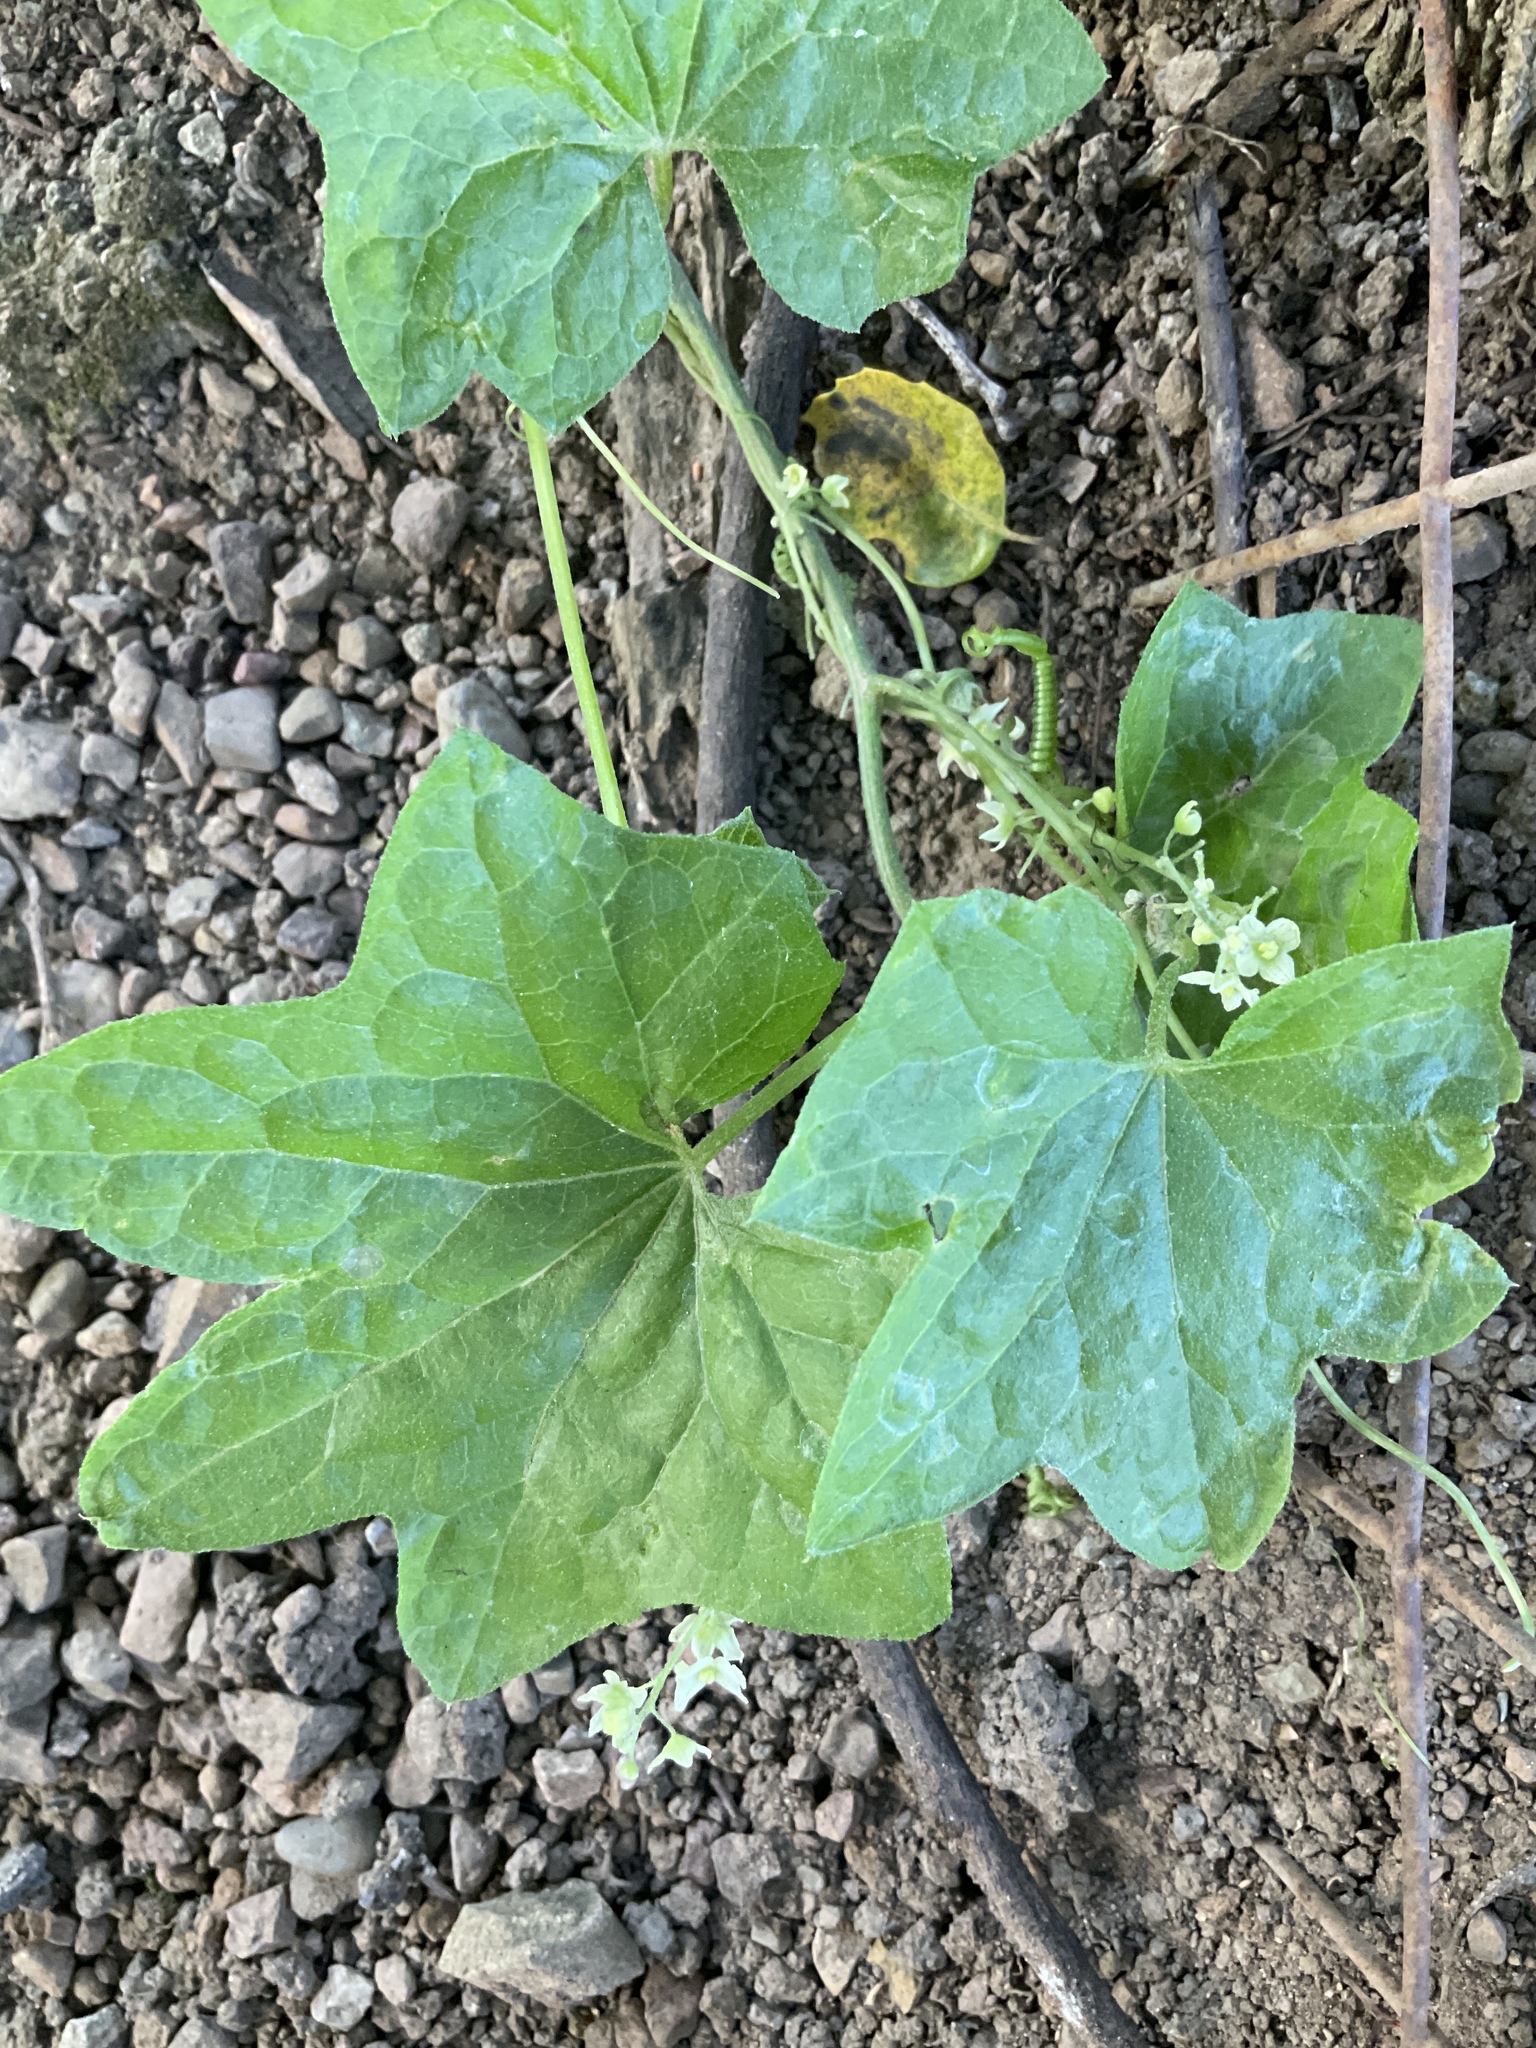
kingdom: Plantae
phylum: Tracheophyta
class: Magnoliopsida
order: Cucurbitales
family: Cucurbitaceae
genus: Marah
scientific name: Marah fabacea
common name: California manroot
